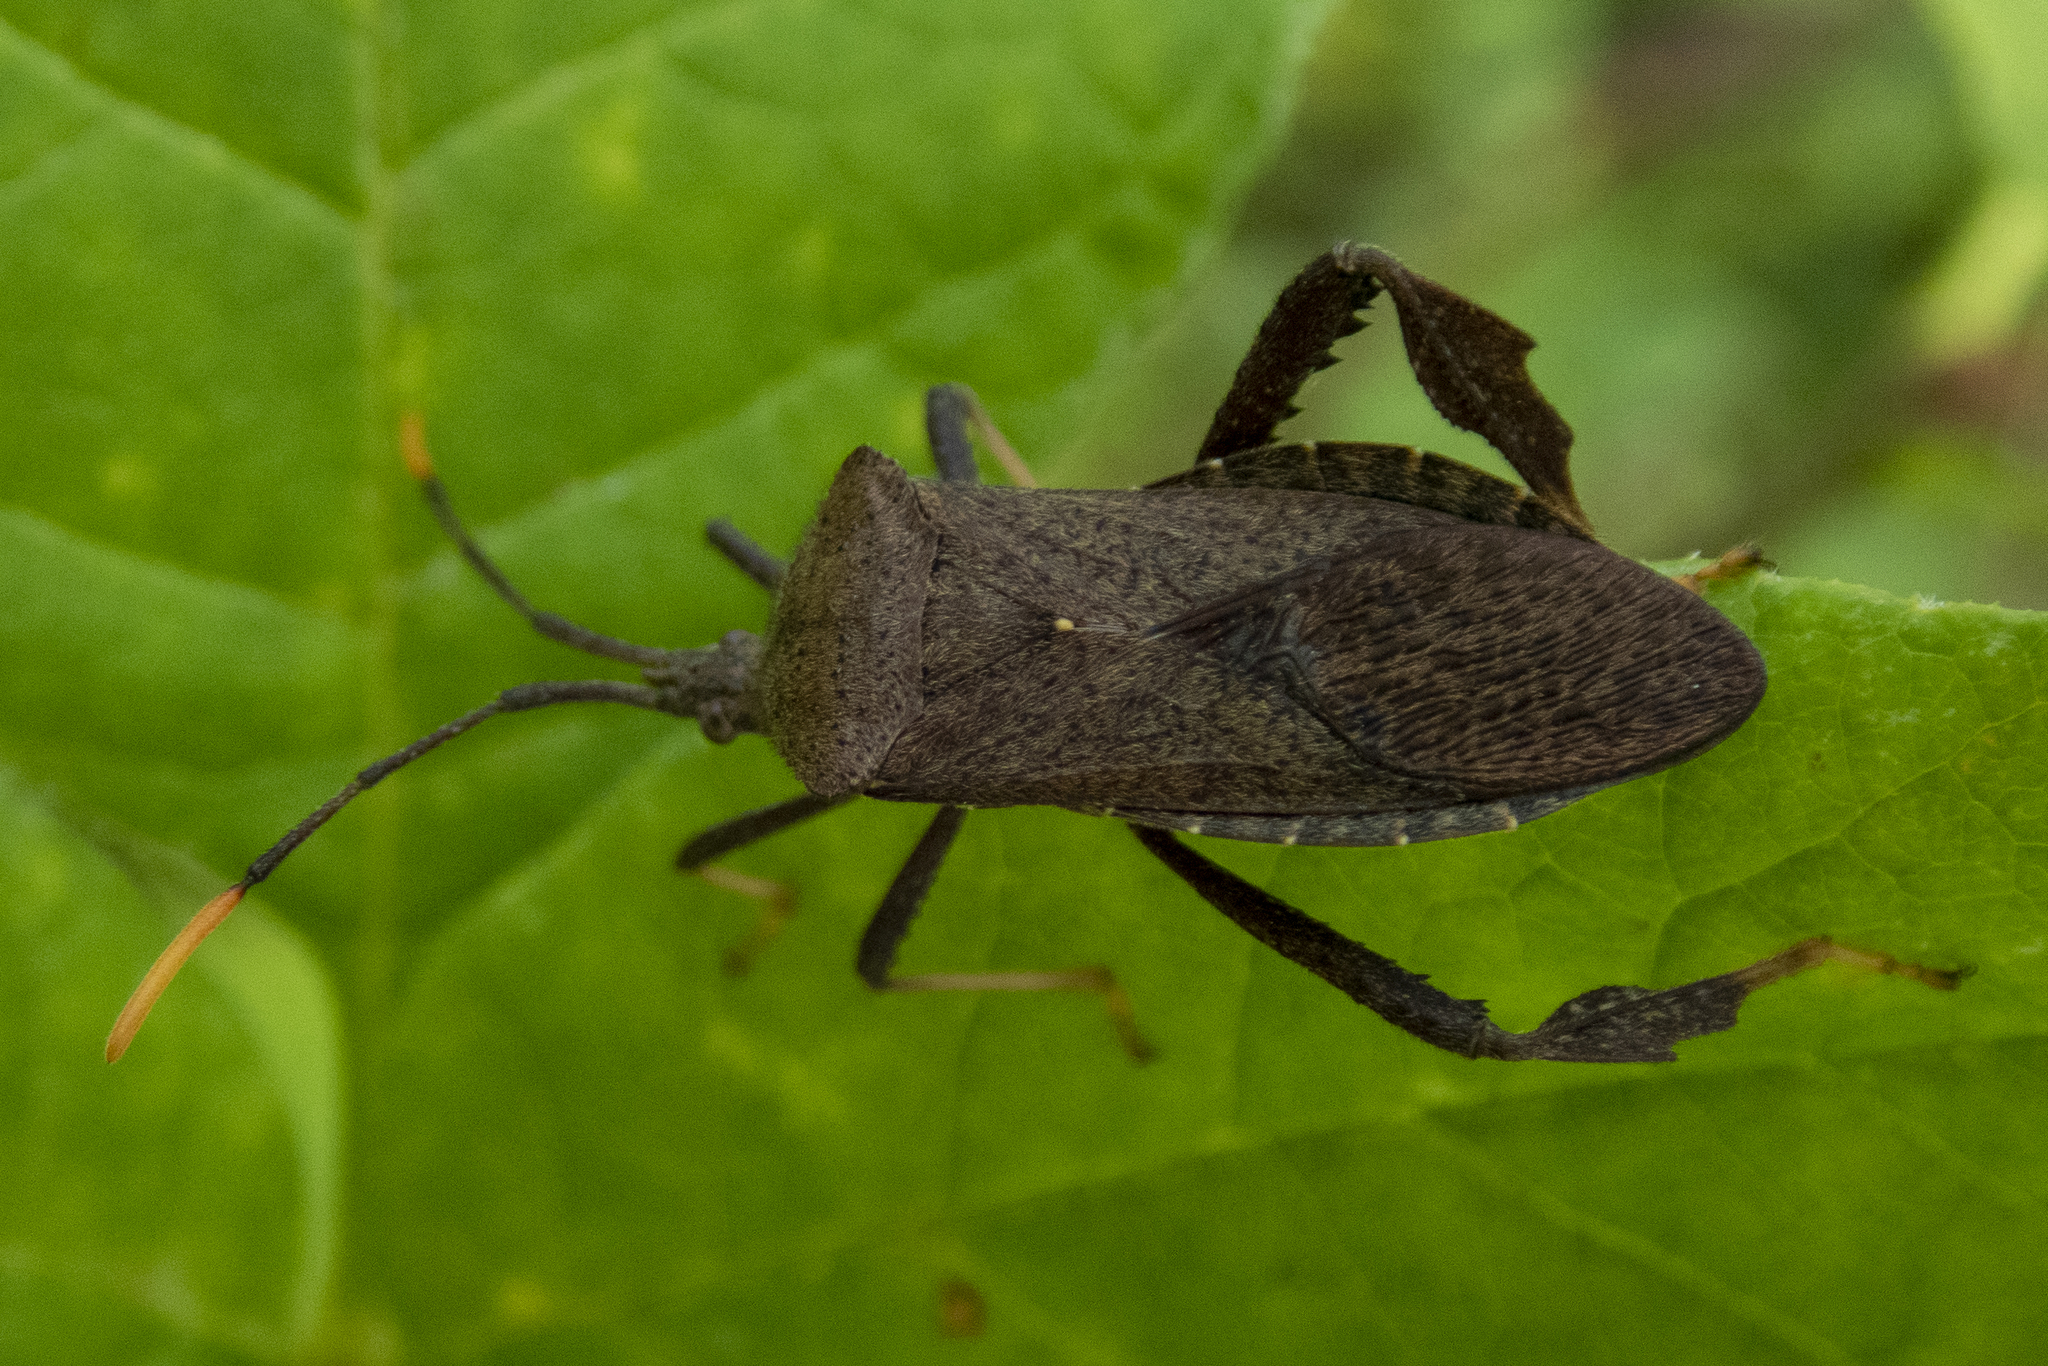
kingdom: Animalia
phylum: Arthropoda
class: Insecta
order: Hemiptera
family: Coreidae
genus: Acanthocephala
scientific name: Acanthocephala terminalis
